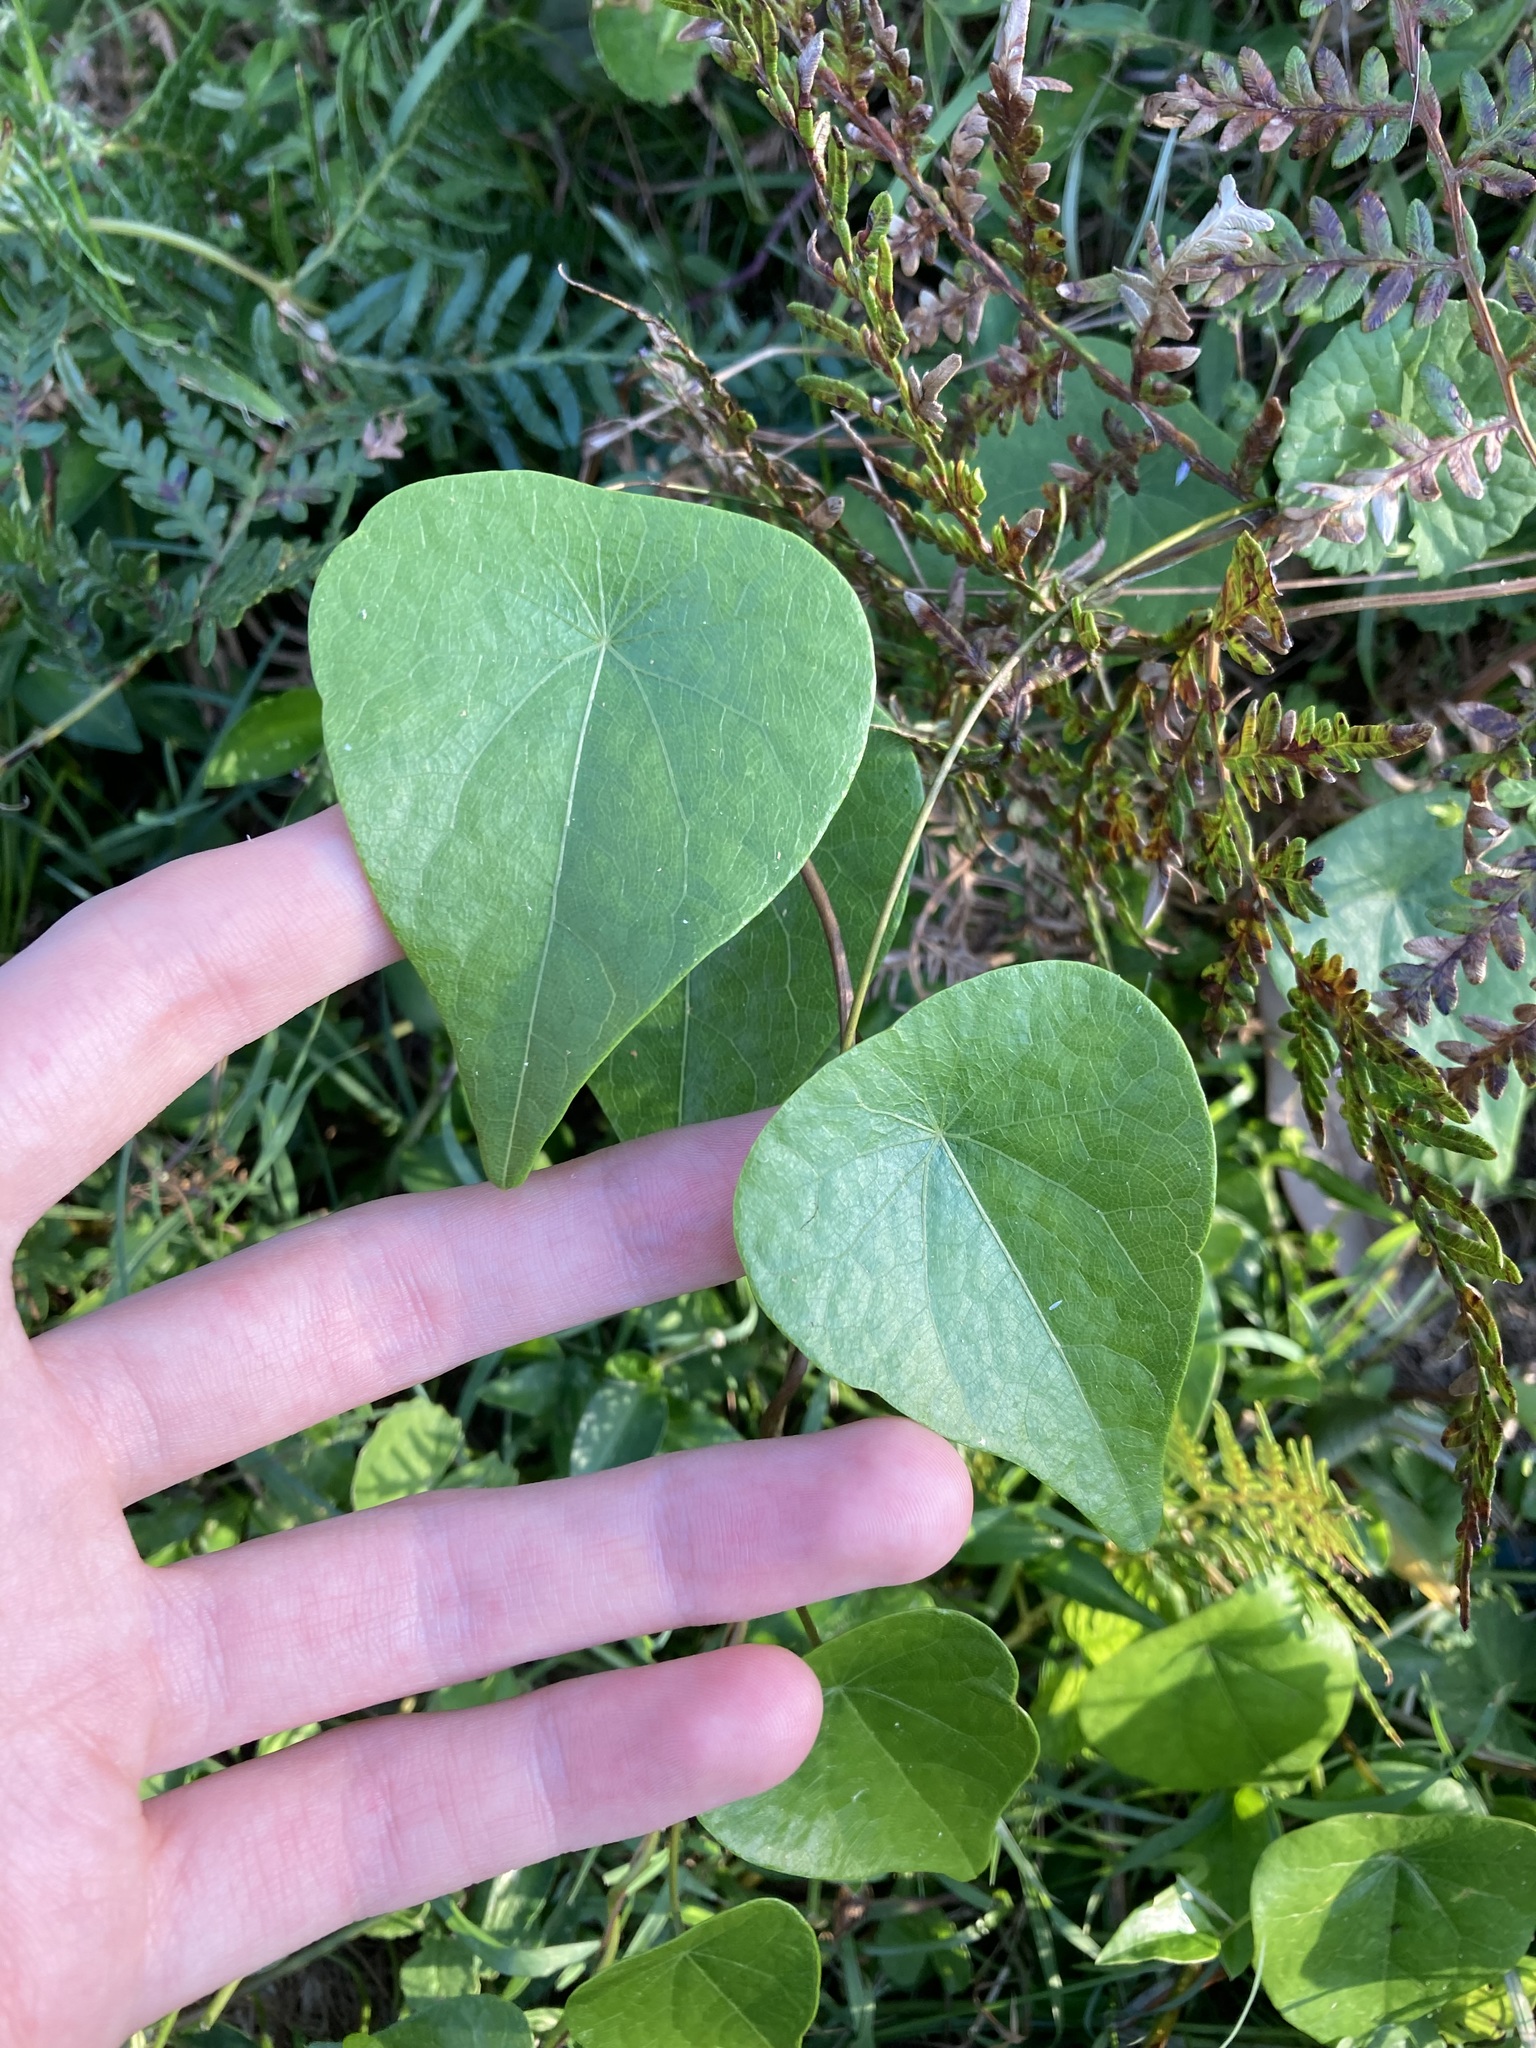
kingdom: Plantae
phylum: Tracheophyta
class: Magnoliopsida
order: Ranunculales
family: Menispermaceae
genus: Stephania
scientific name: Stephania japonica
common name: Snake vine
